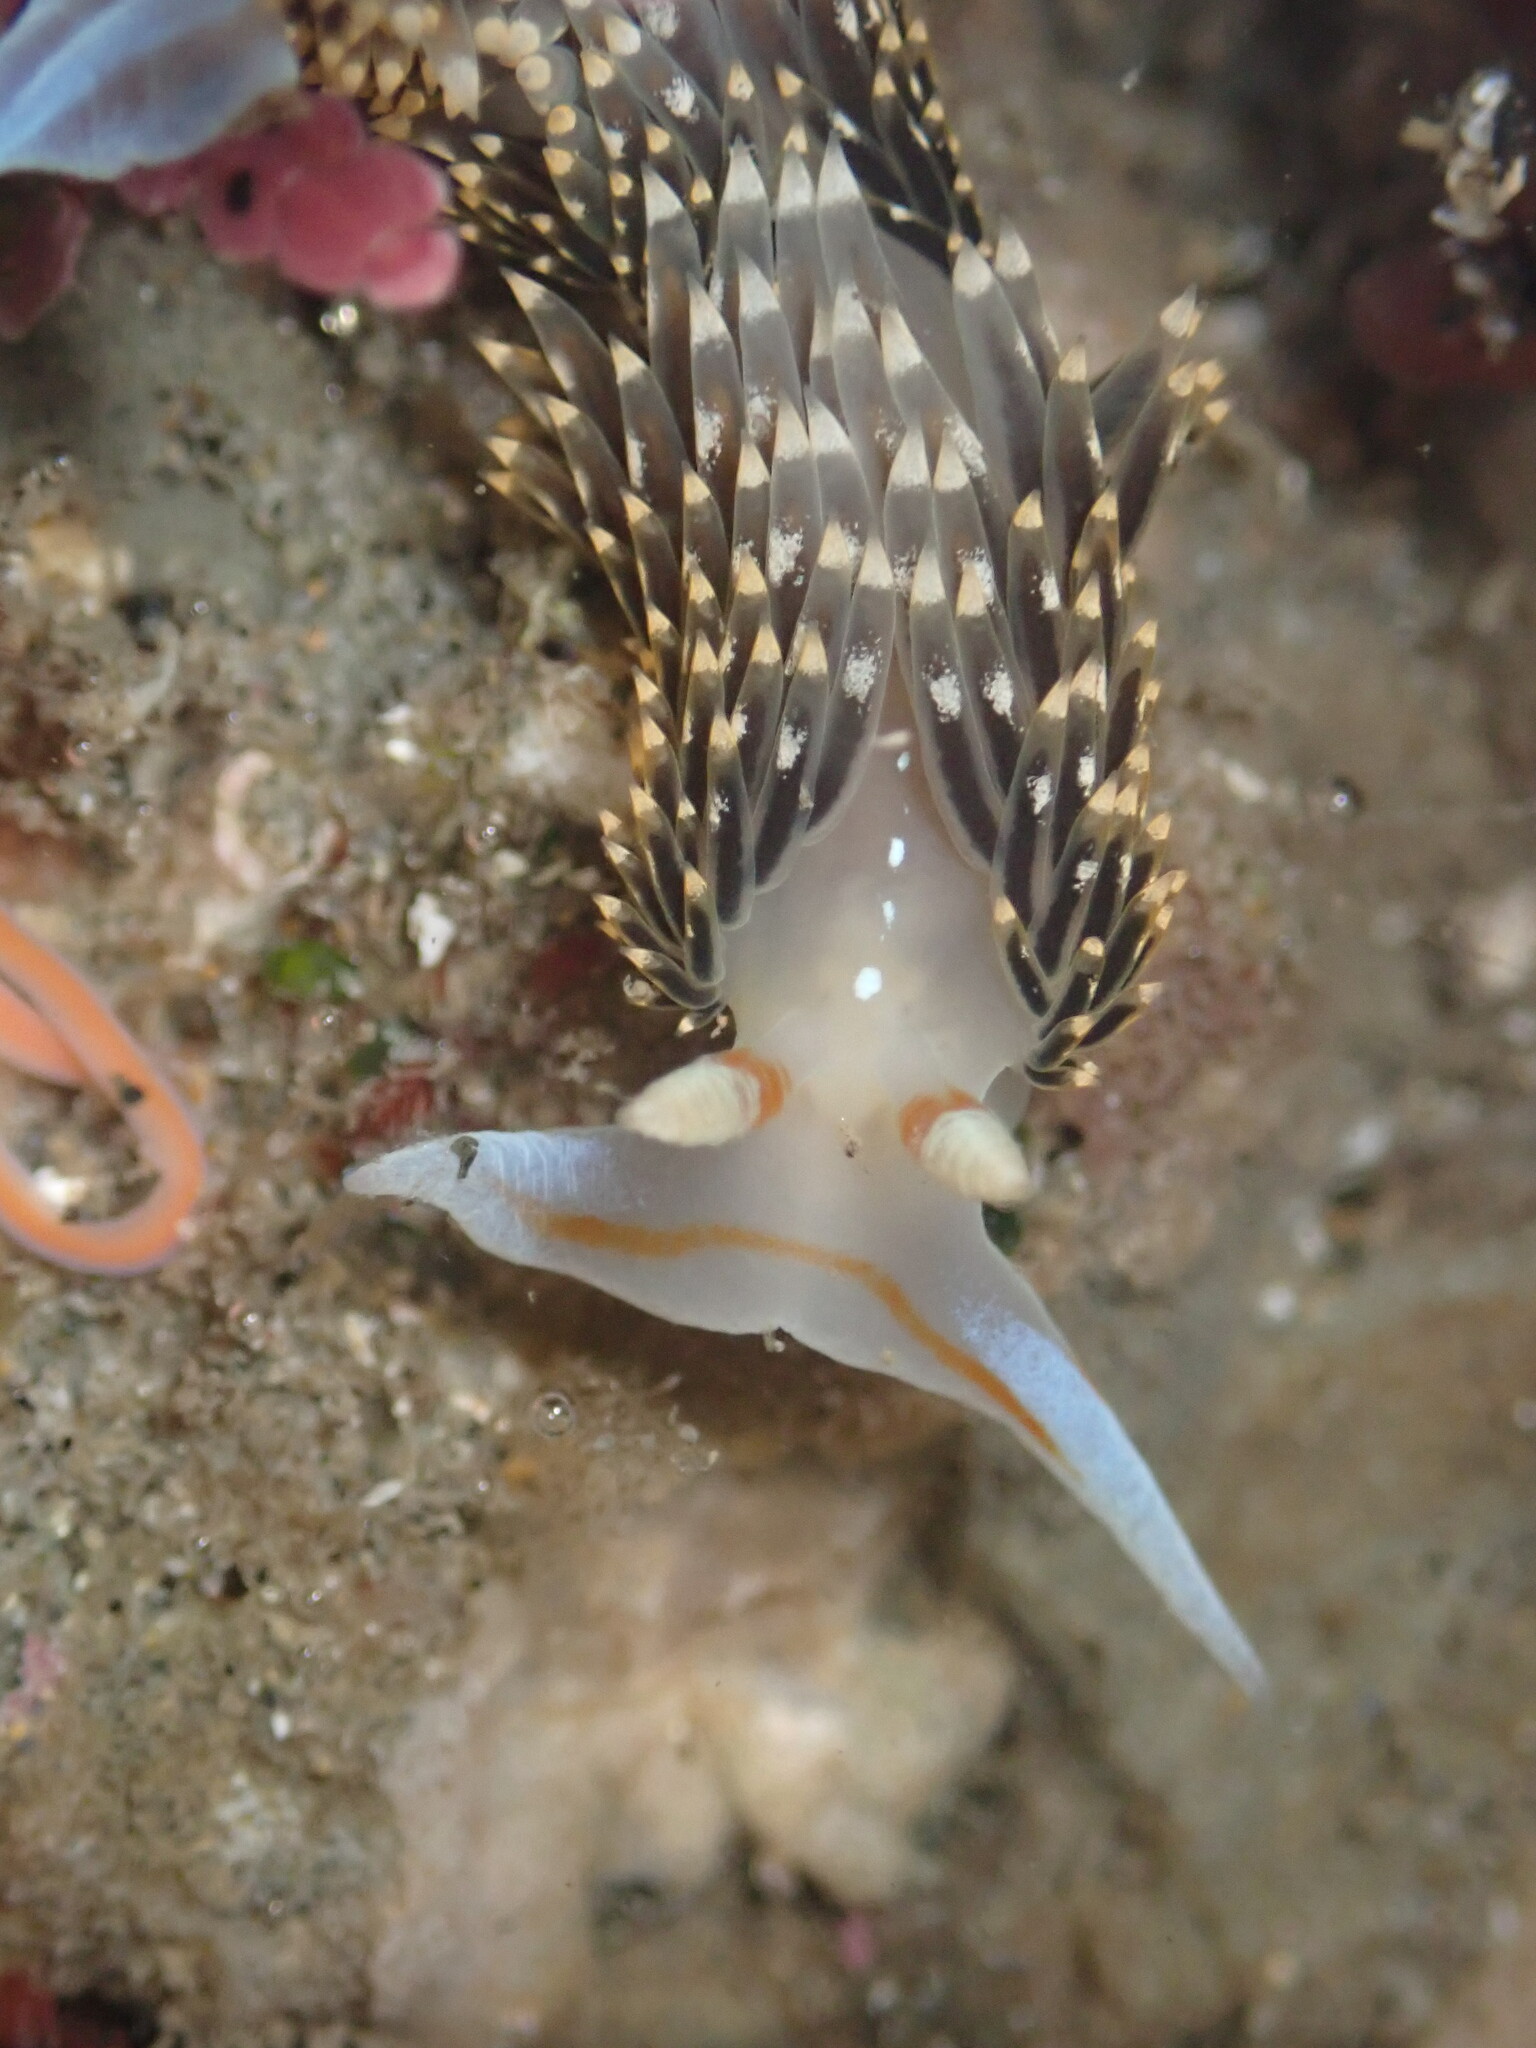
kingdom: Animalia
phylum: Mollusca
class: Gastropoda
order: Nudibranchia
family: Facelinidae
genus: Phidiana
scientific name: Phidiana hiltoni
